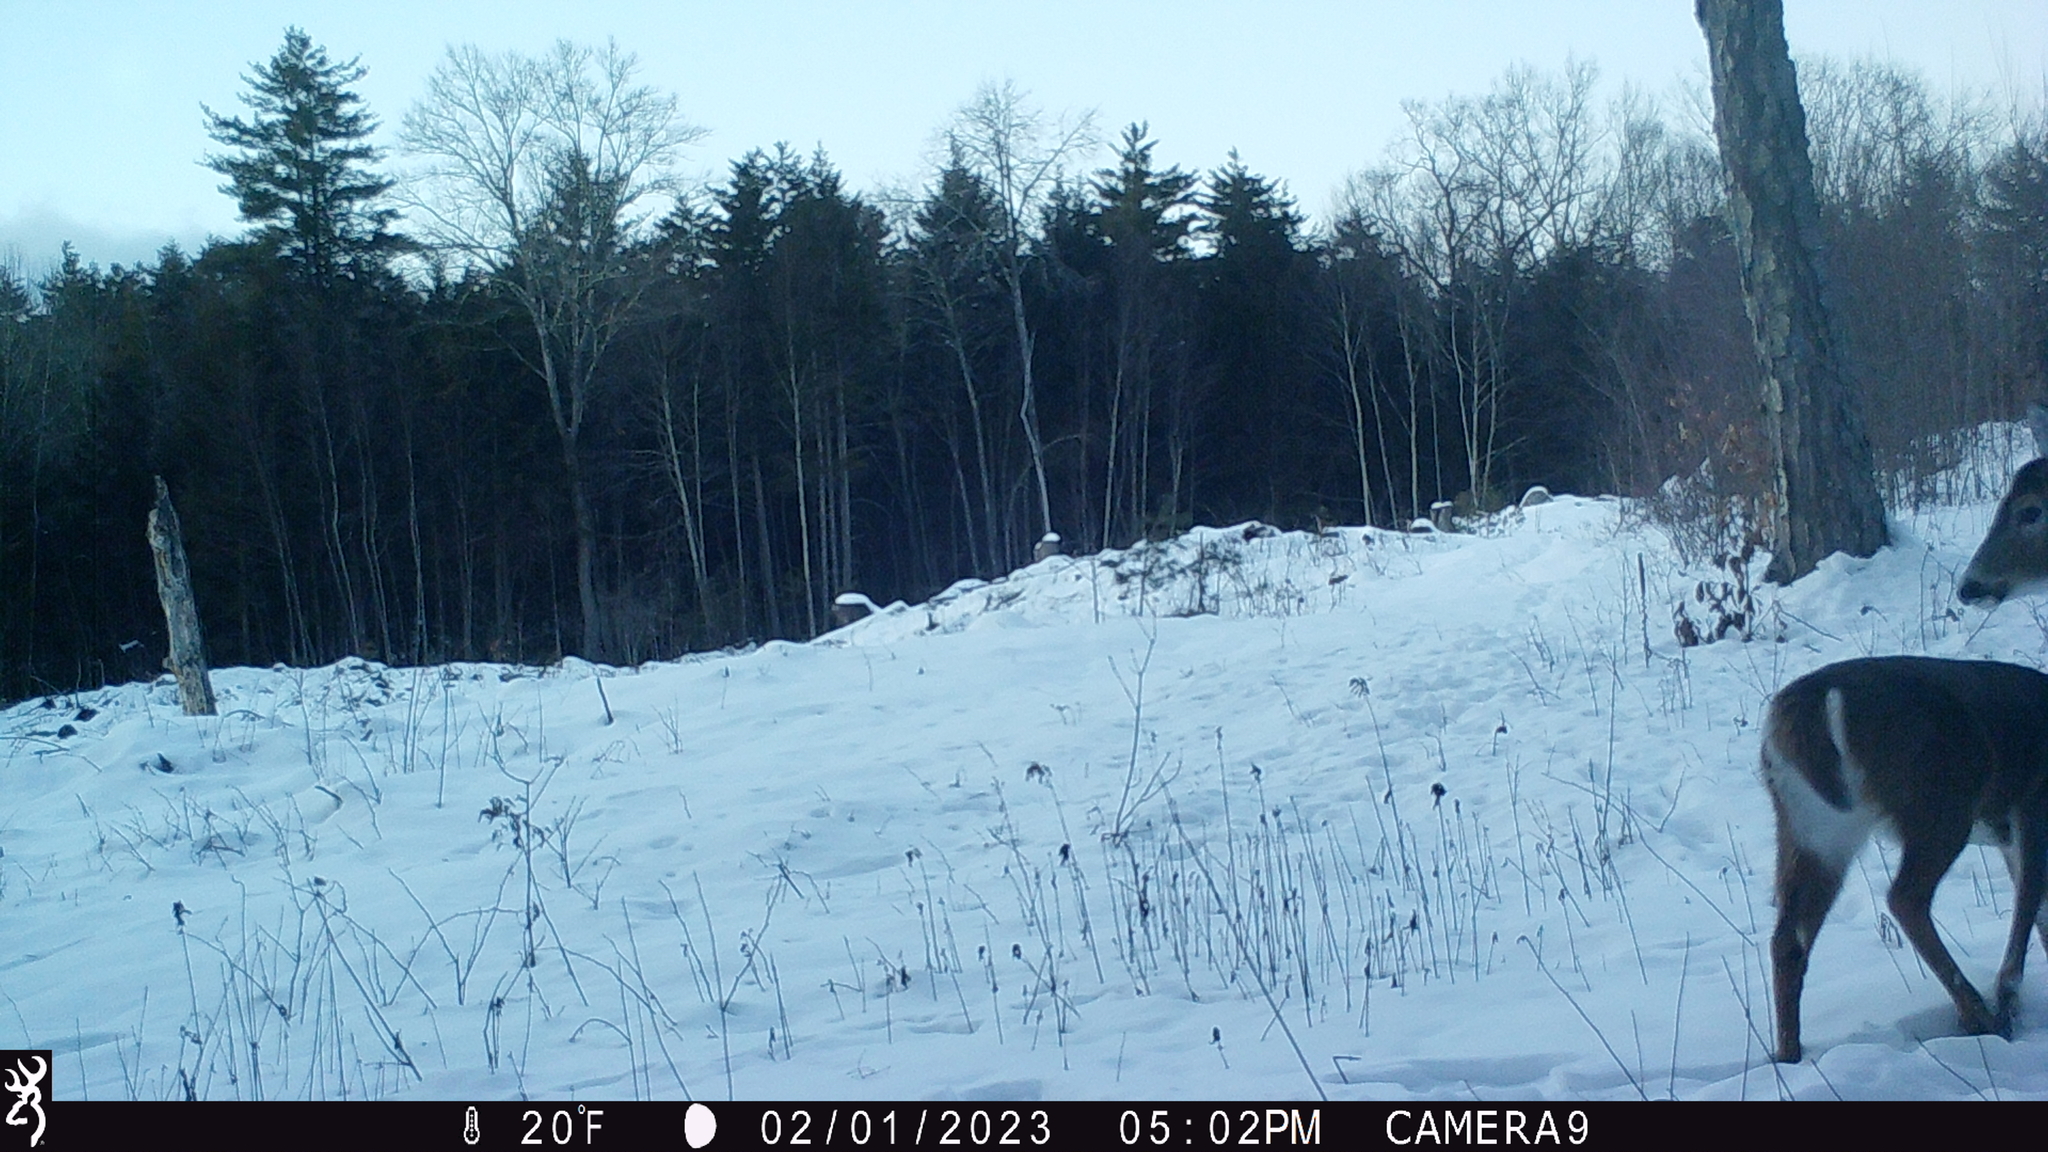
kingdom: Animalia
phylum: Chordata
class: Mammalia
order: Artiodactyla
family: Cervidae
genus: Odocoileus
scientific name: Odocoileus virginianus
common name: White-tailed deer
